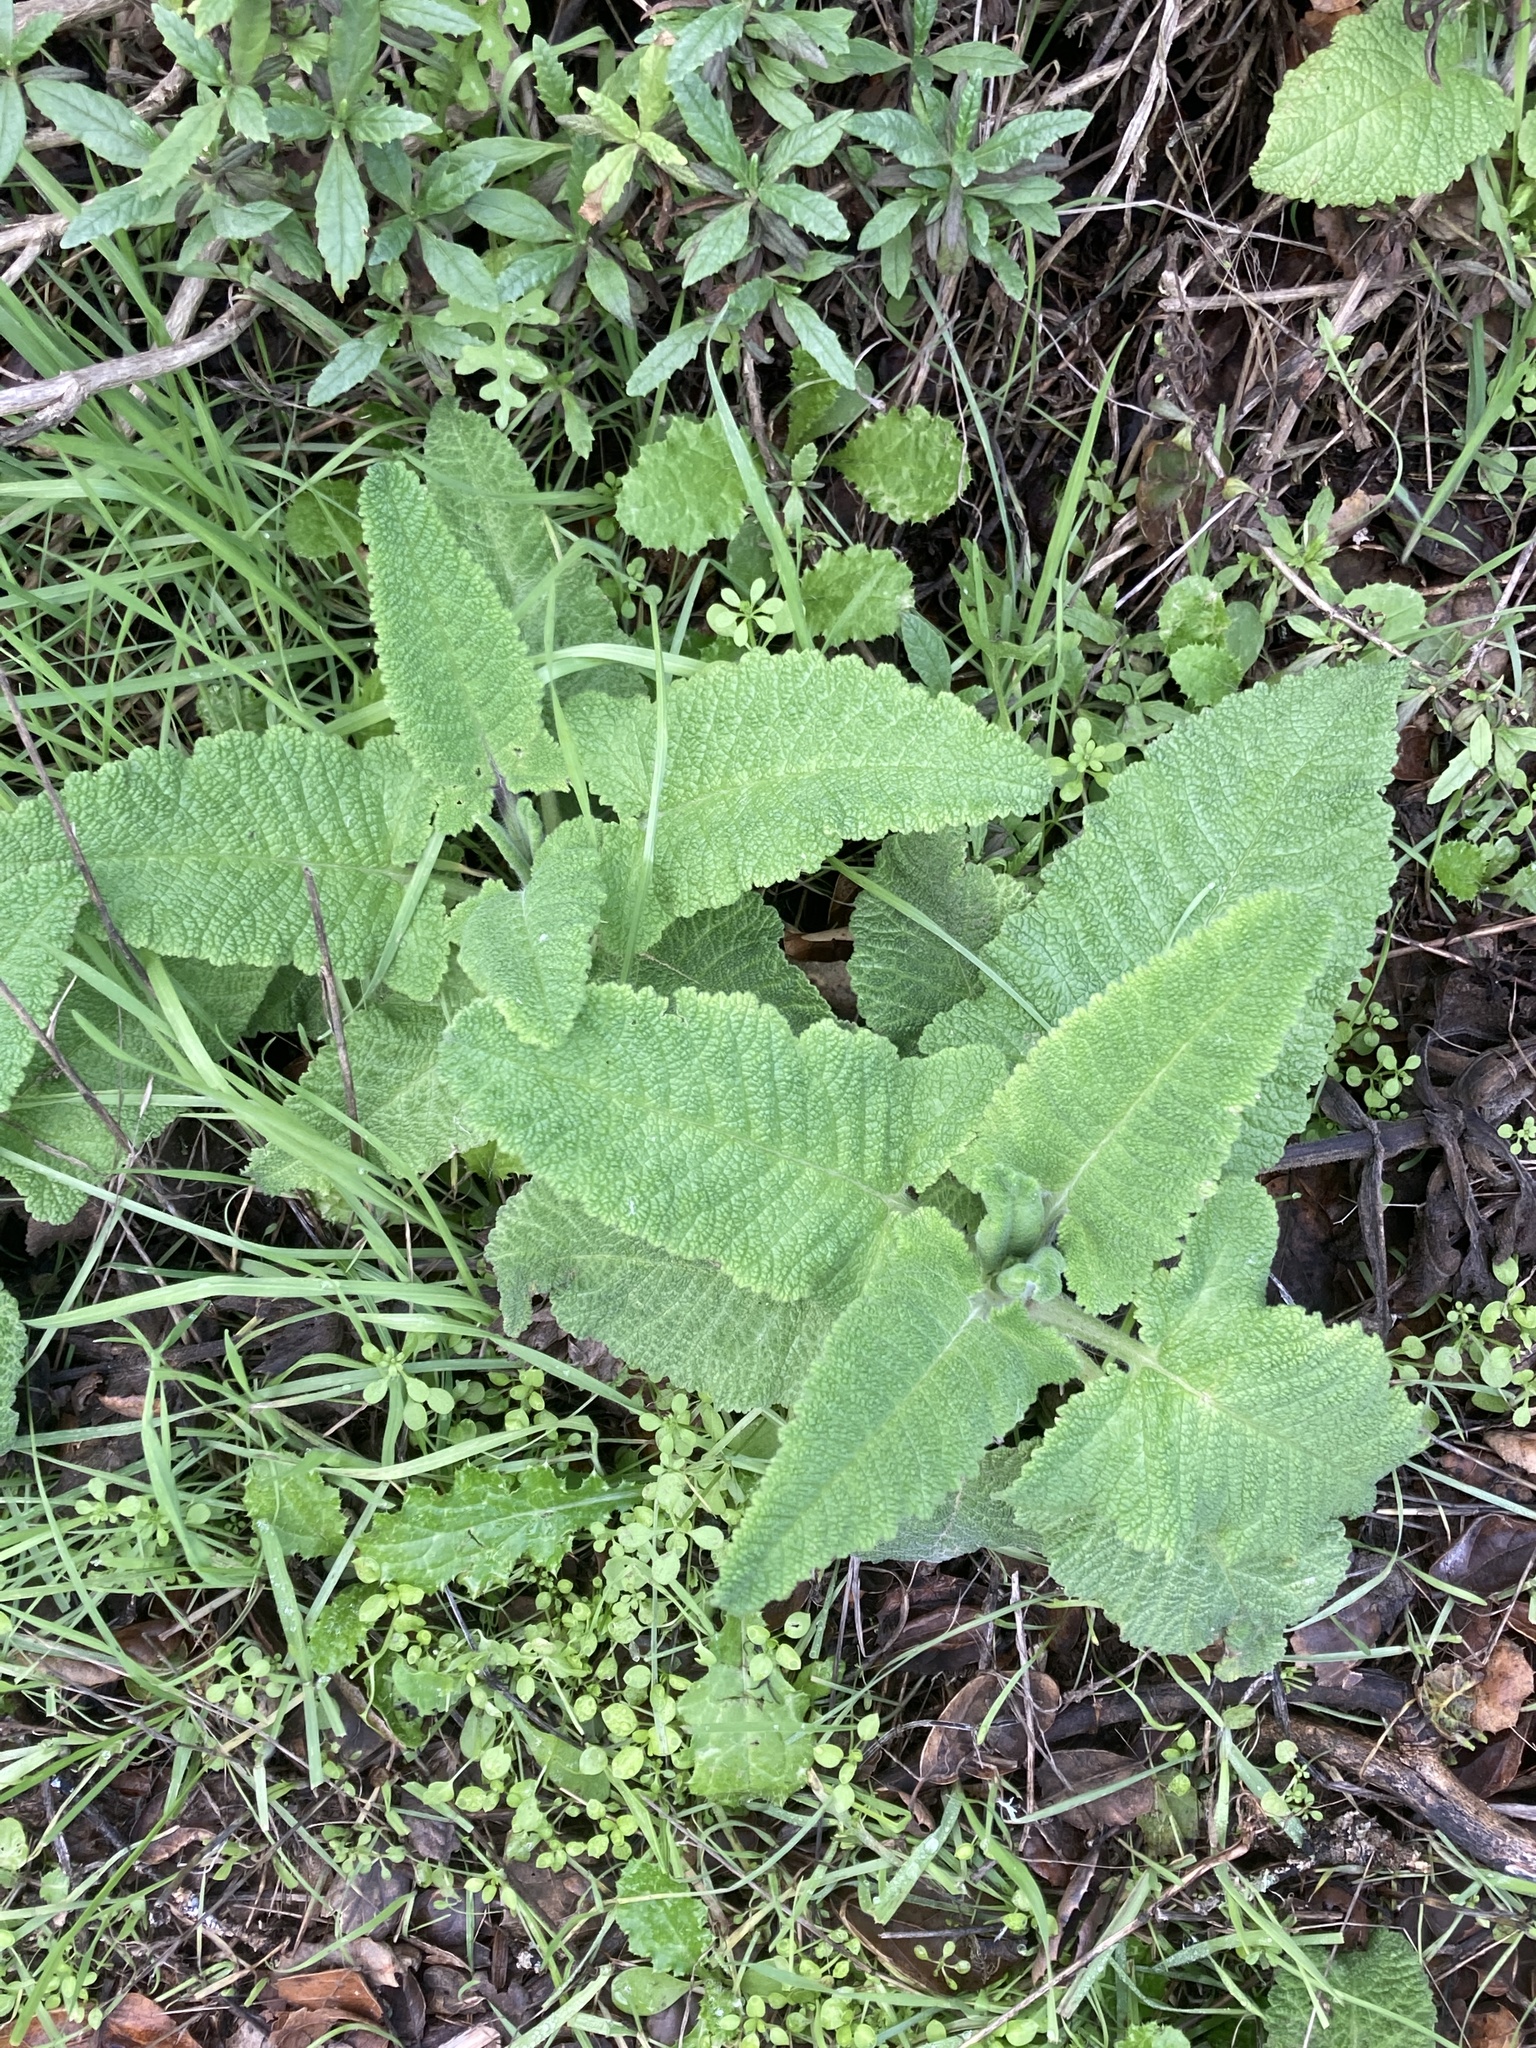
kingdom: Plantae
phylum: Tracheophyta
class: Magnoliopsida
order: Lamiales
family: Lamiaceae
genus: Salvia
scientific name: Salvia spathacea
